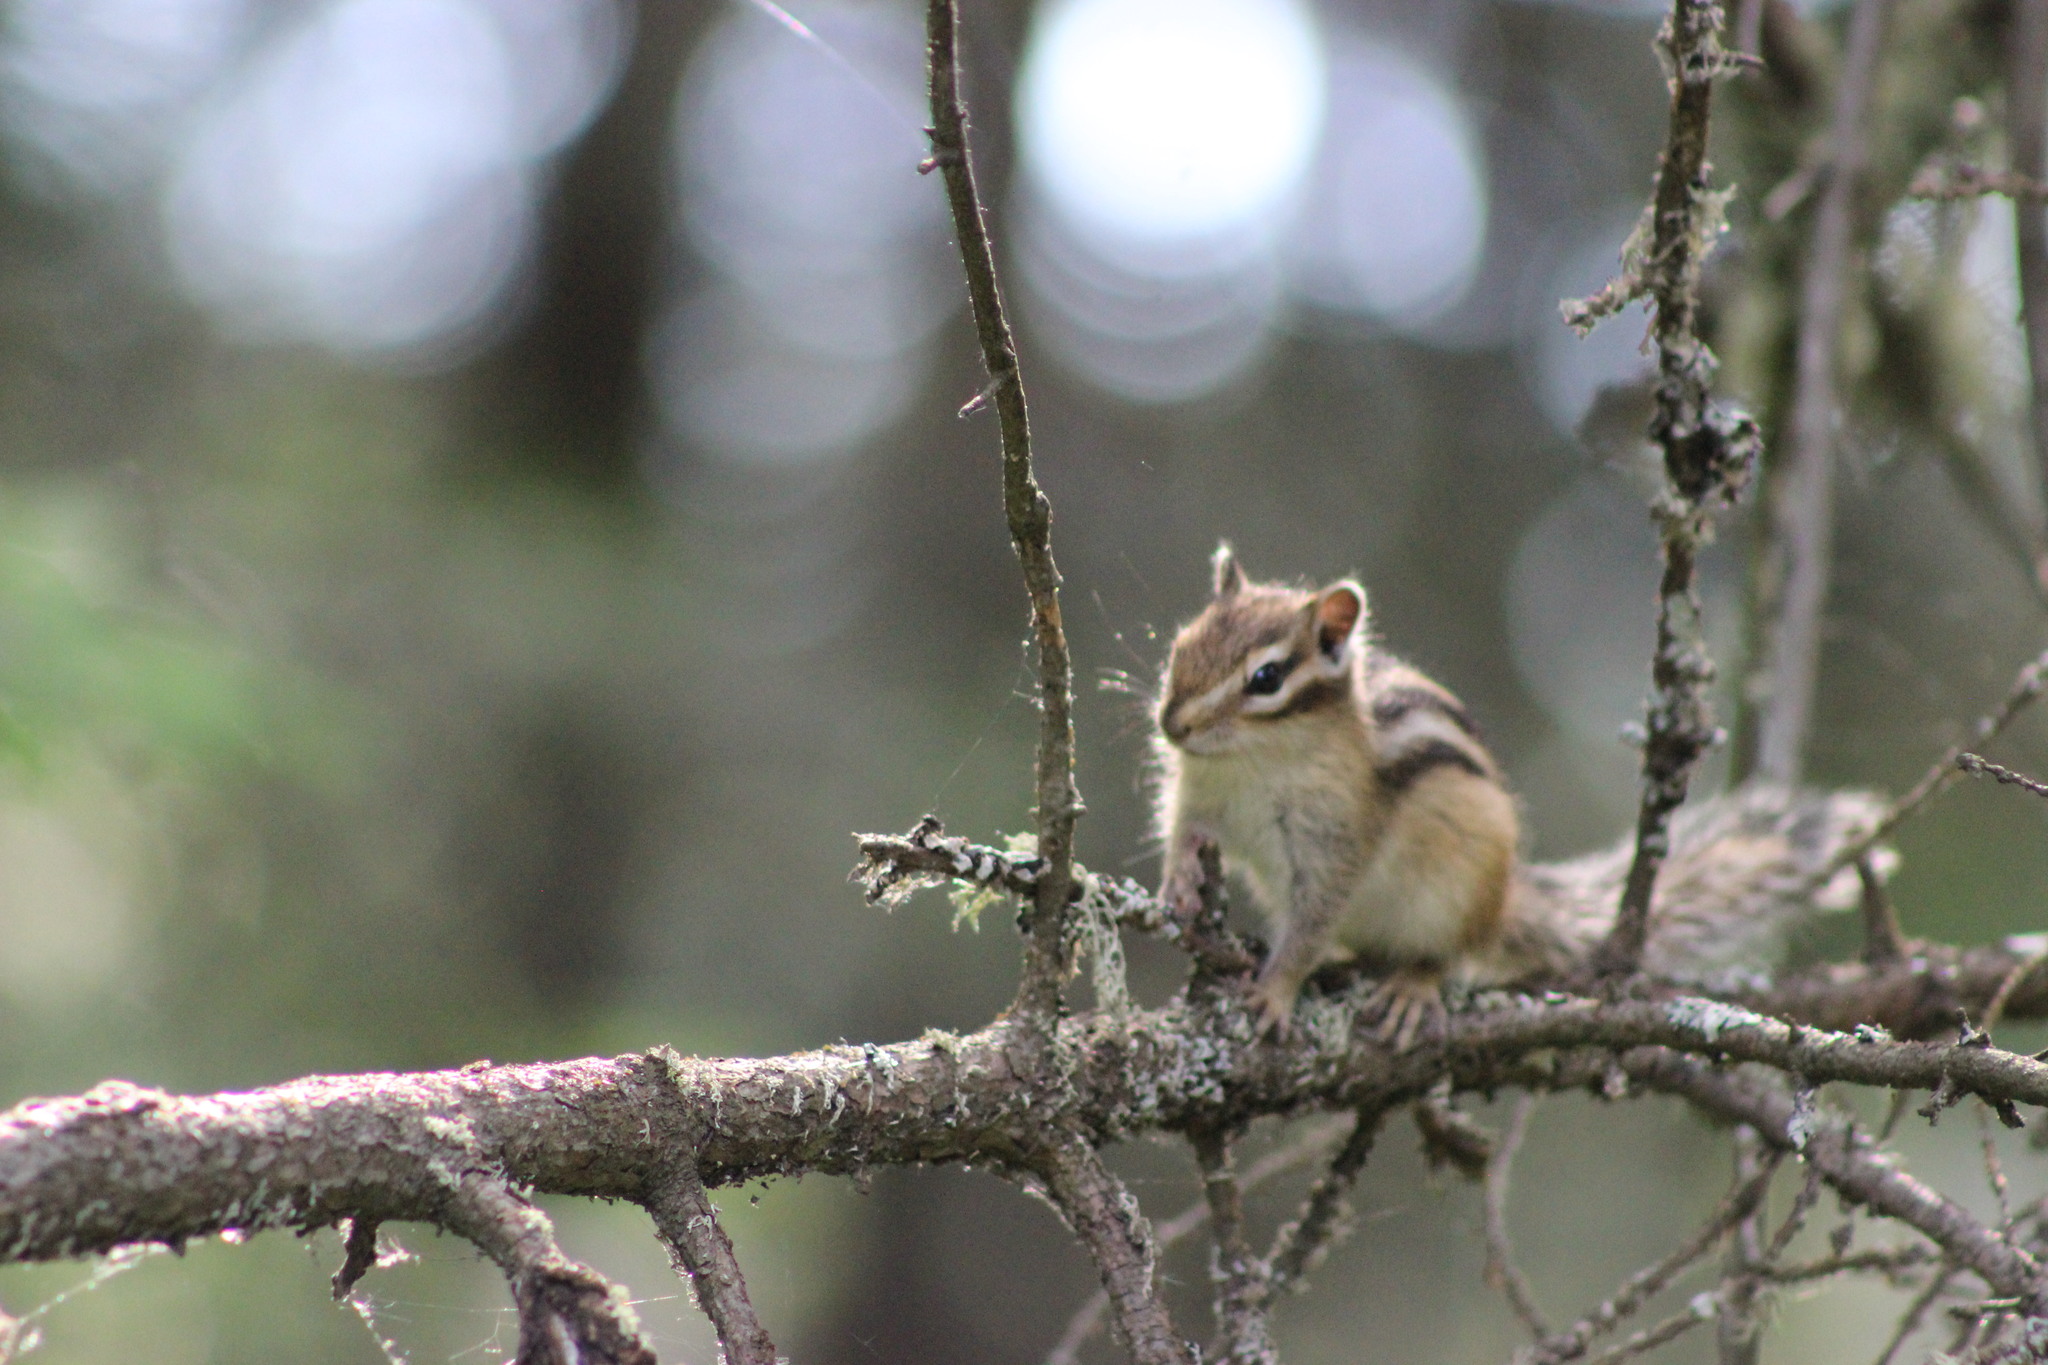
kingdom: Animalia
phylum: Chordata
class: Mammalia
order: Rodentia
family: Sciuridae
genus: Tamias
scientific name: Tamias sibiricus
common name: Siberian chipmunk
